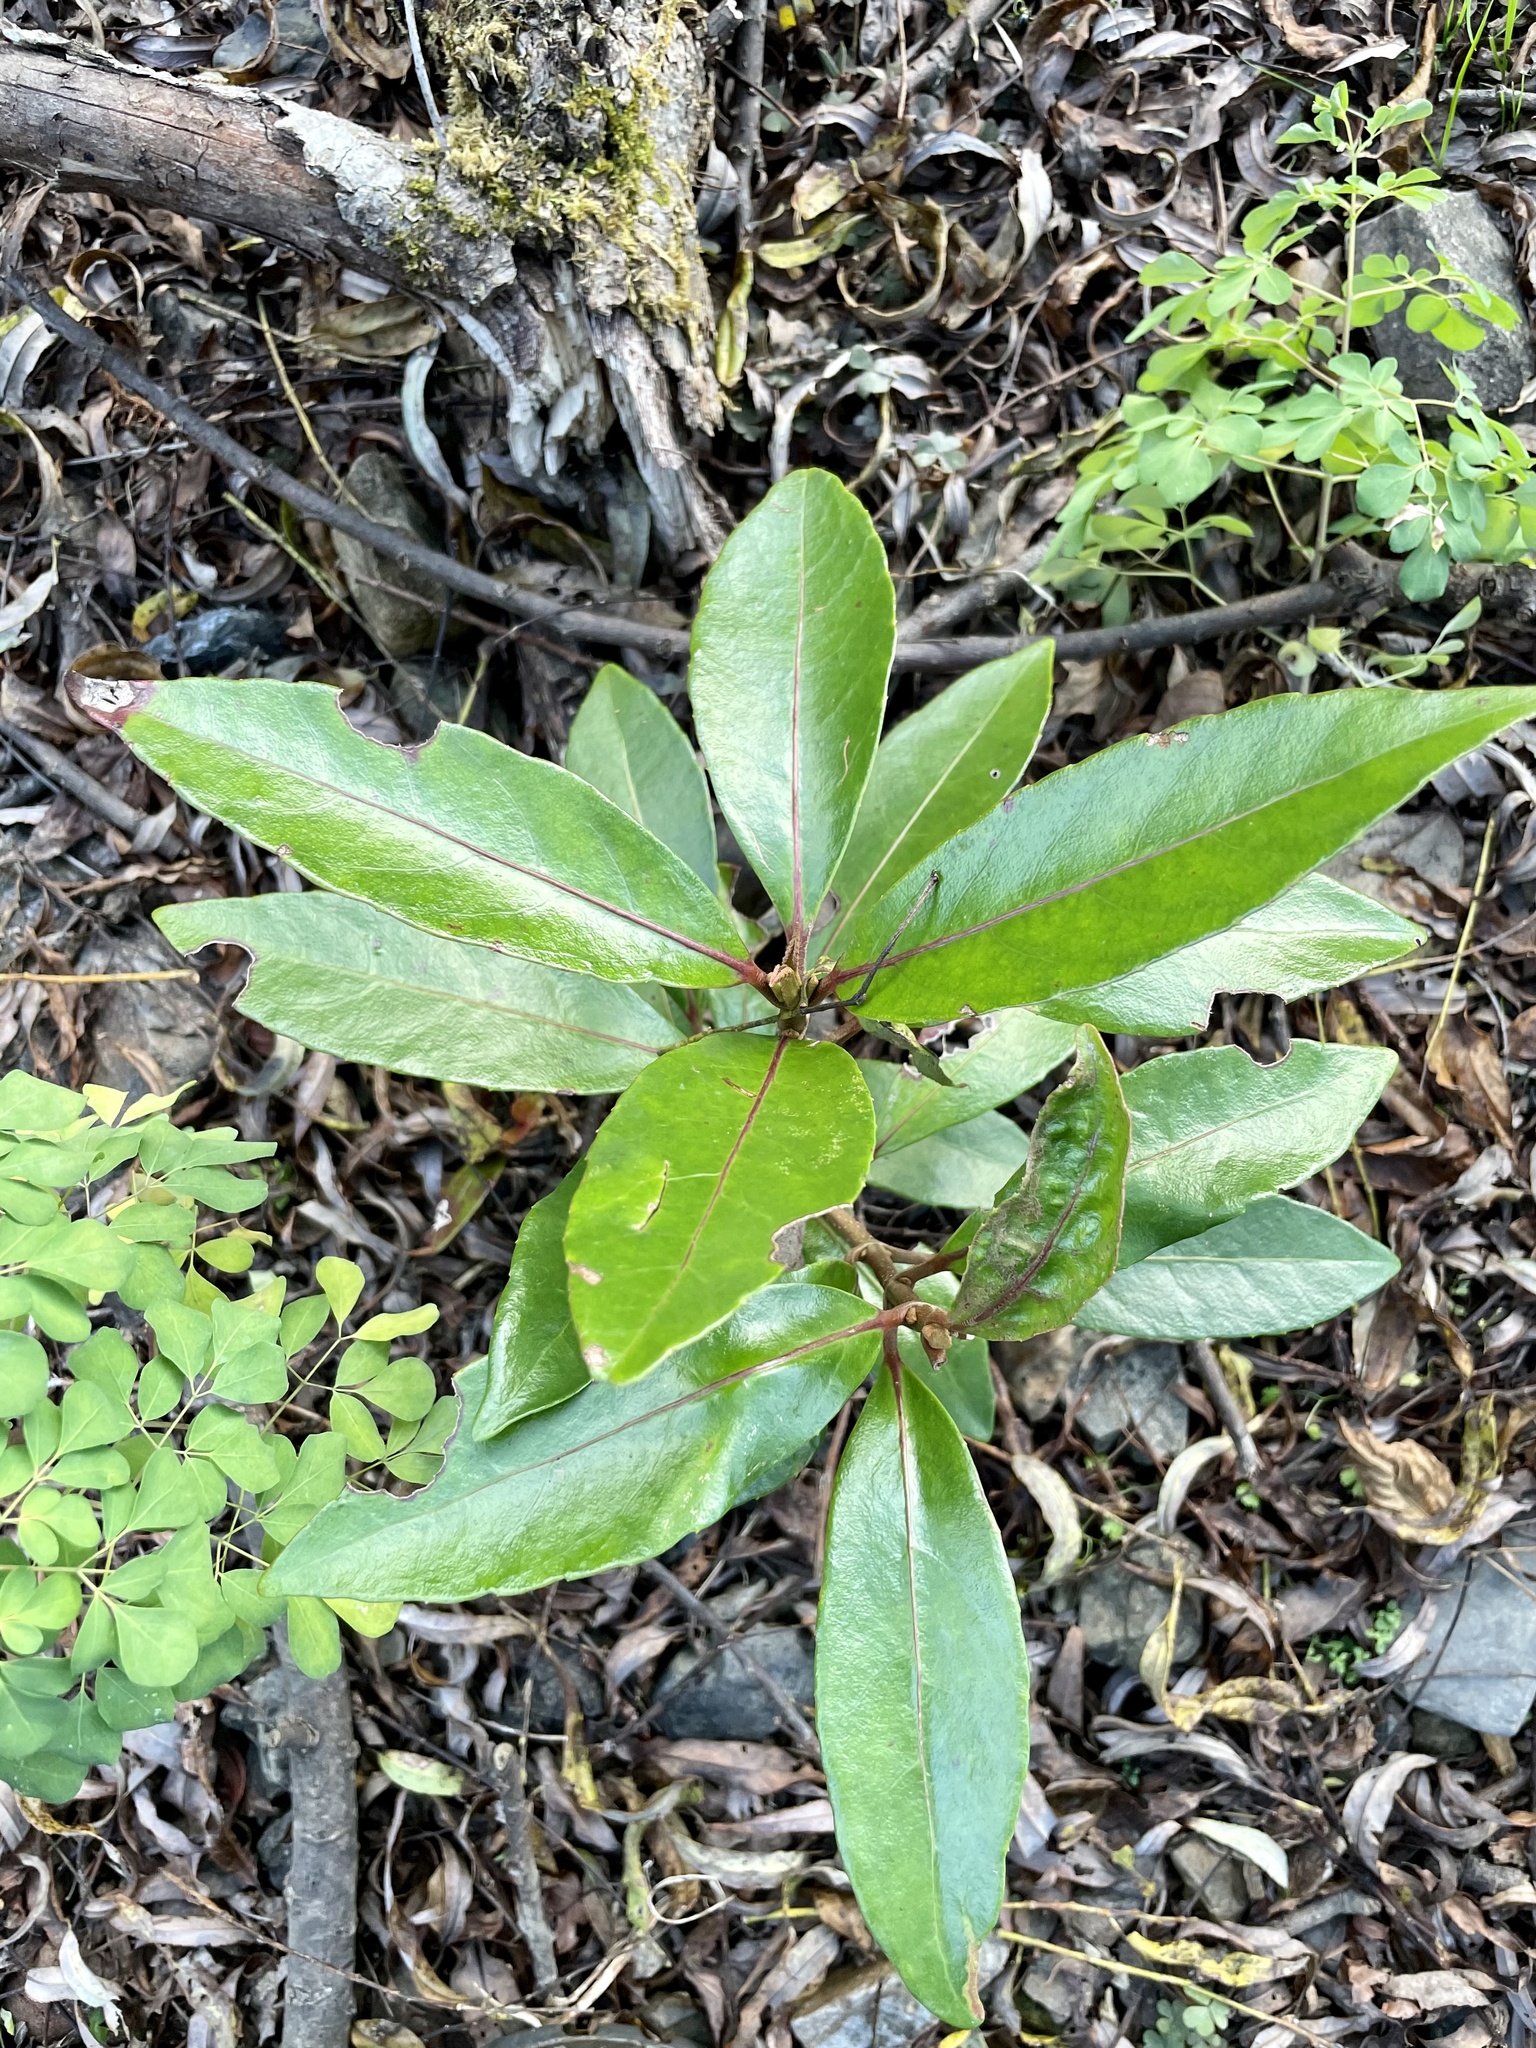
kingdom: Plantae
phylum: Tracheophyta
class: Magnoliopsida
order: Dipsacales
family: Viburnaceae
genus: Viburnum
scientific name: Viburnum odoratissimum
